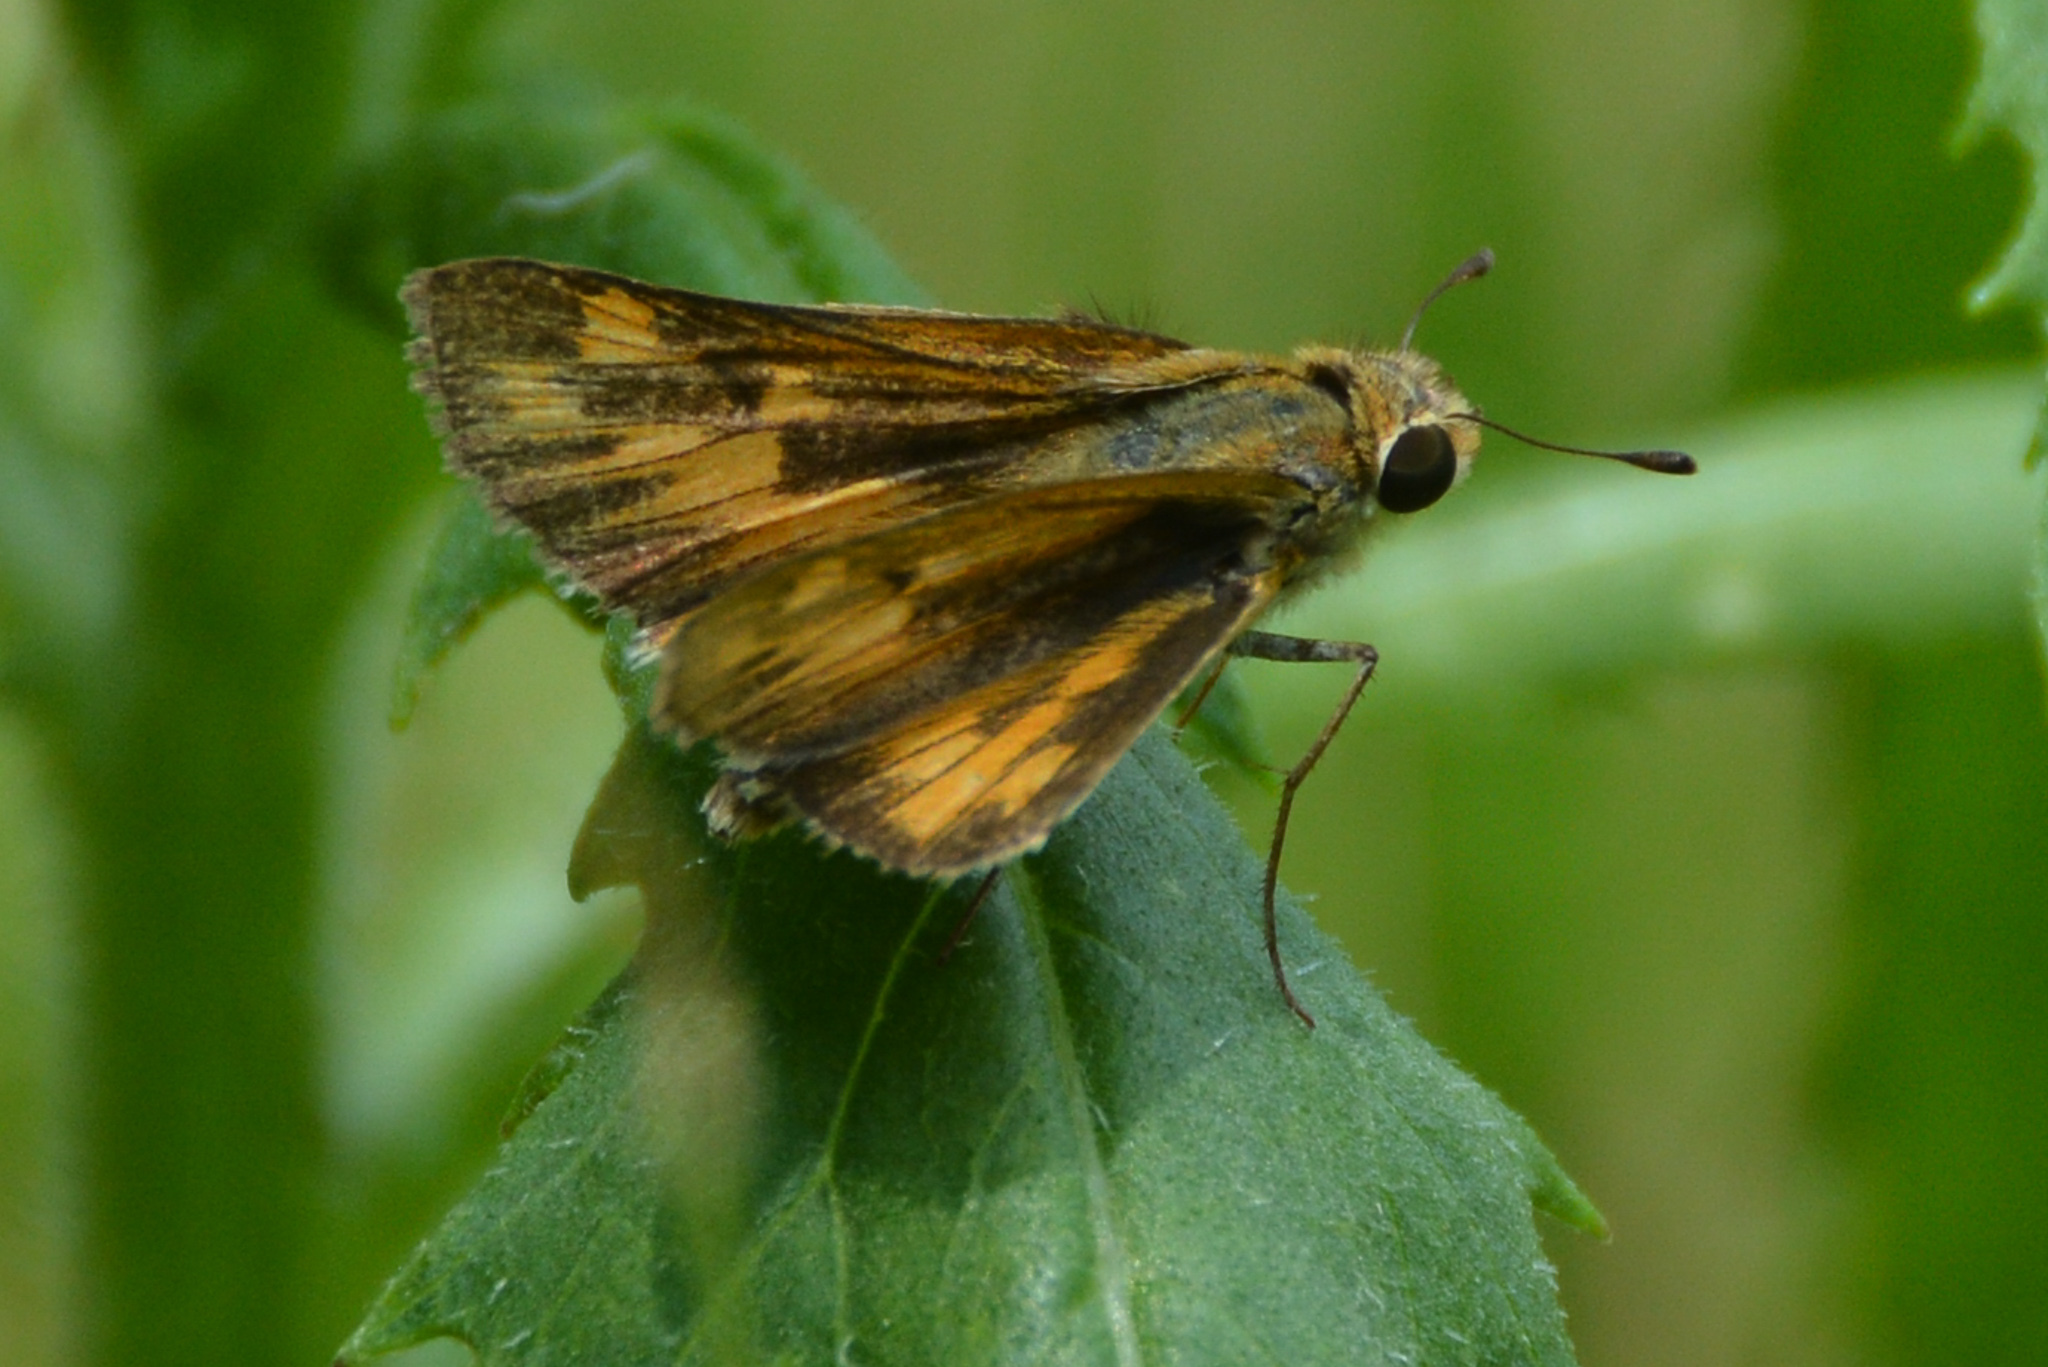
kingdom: Animalia
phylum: Arthropoda
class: Insecta
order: Lepidoptera
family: Hesperiidae
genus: Hylephila
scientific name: Hylephila phyleus
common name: Fiery skipper
